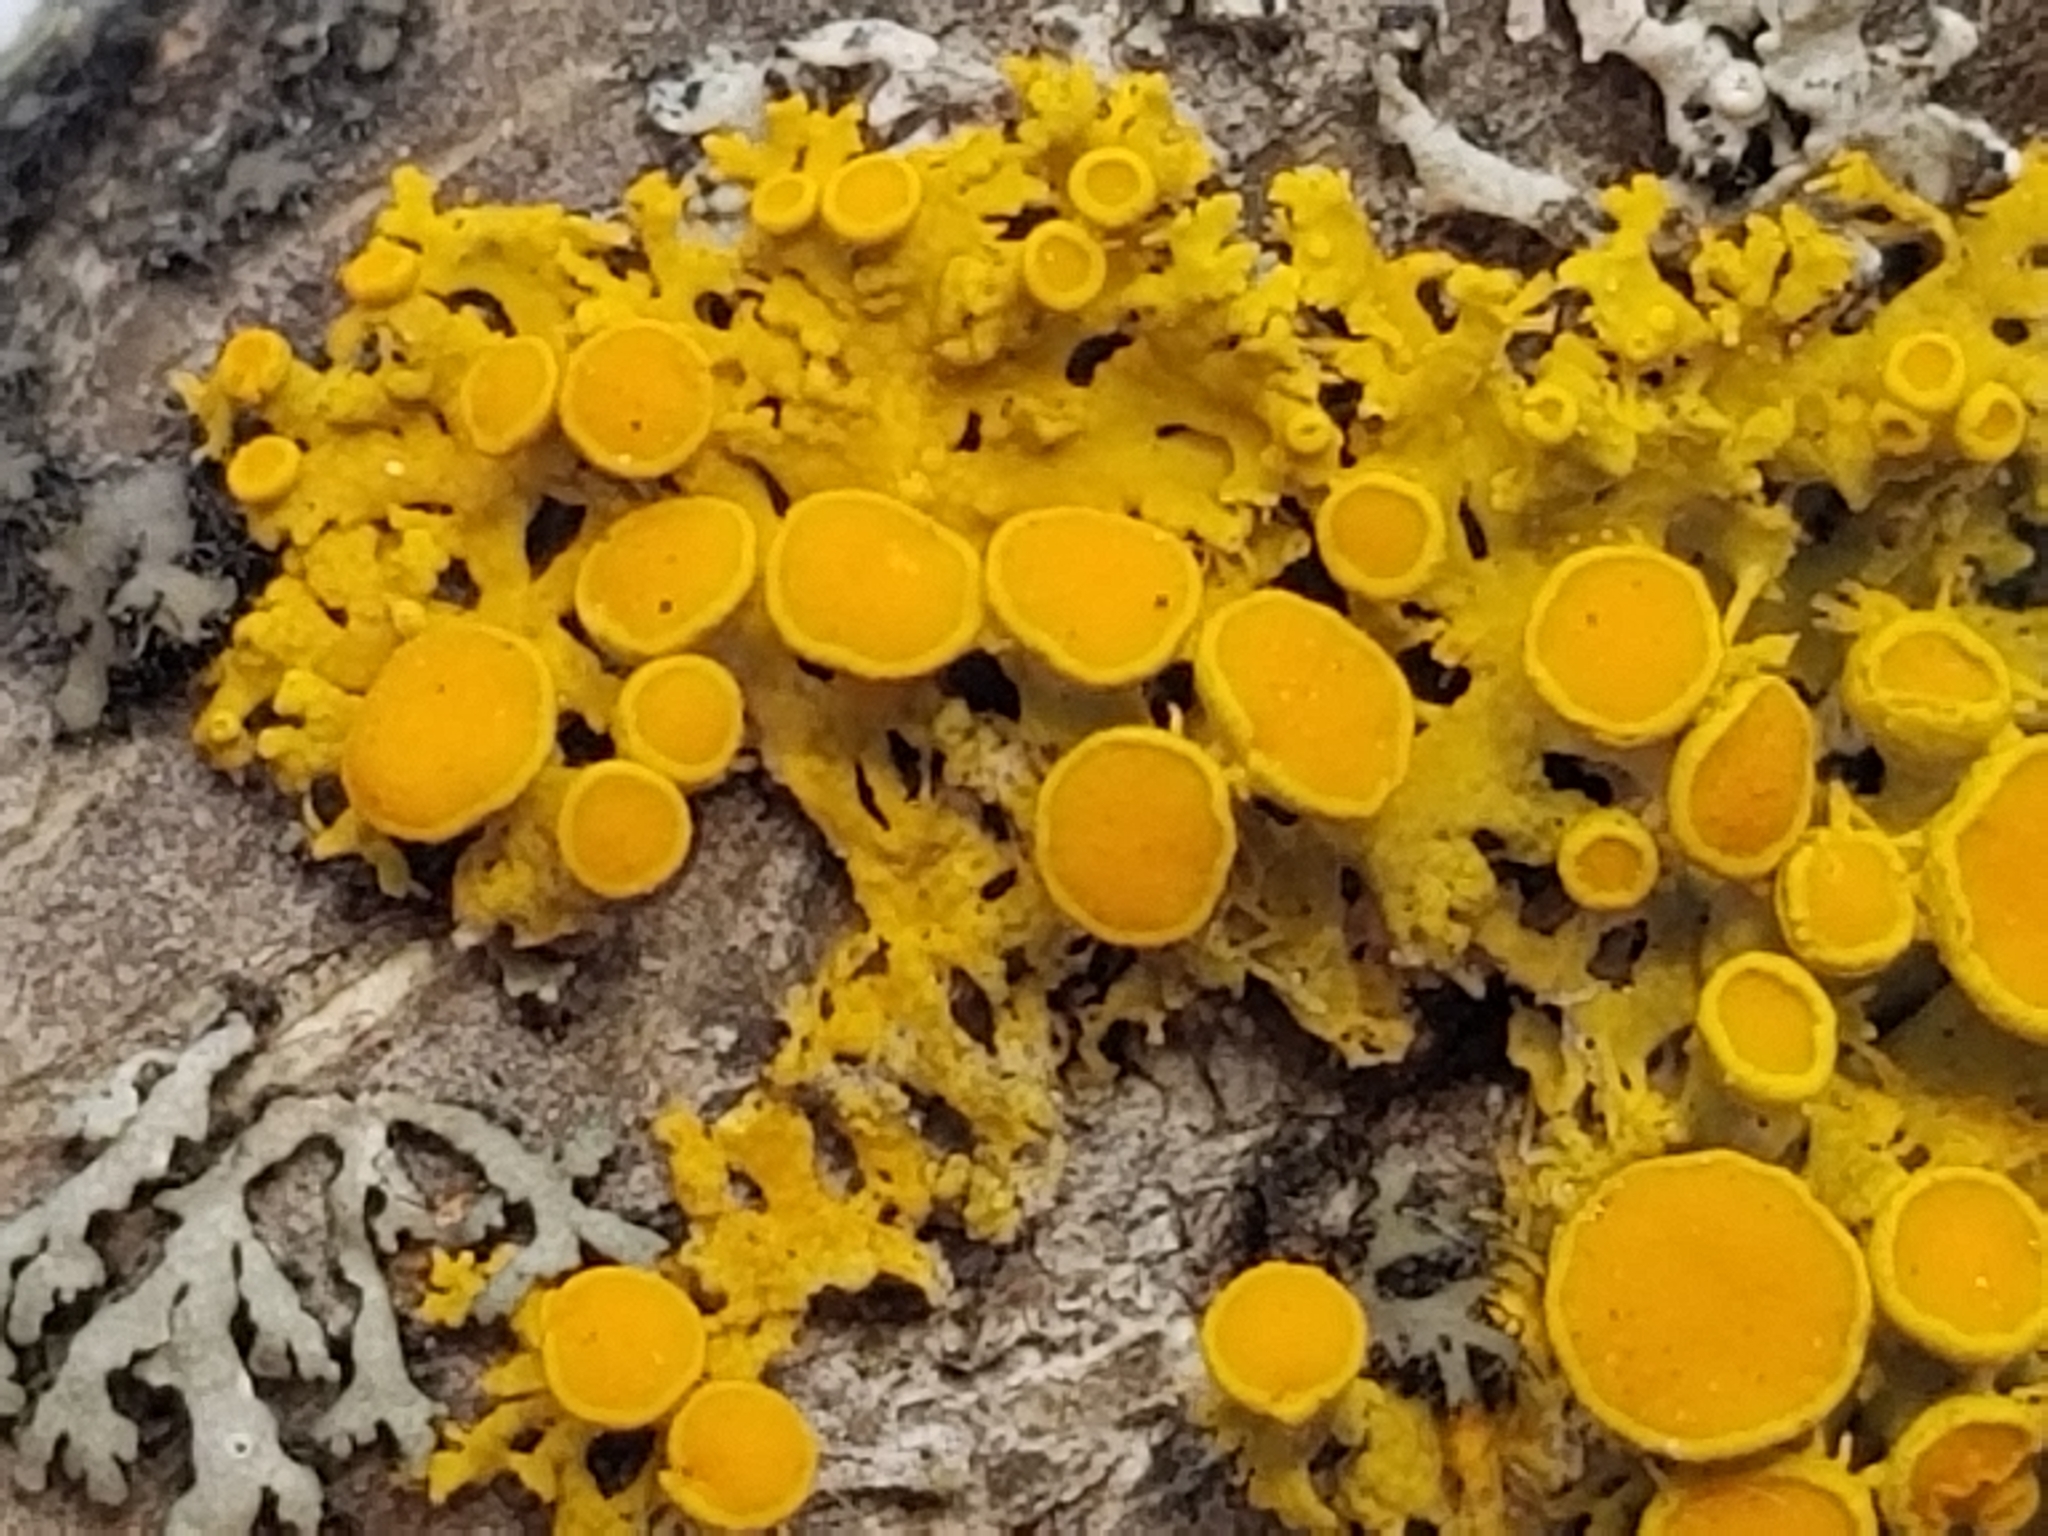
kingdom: Fungi
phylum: Ascomycota
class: Candelariomycetes
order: Candelariales
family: Candelariaceae
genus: Candelaria
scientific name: Candelaria fibrosa
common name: Fringed candleflame lichen
